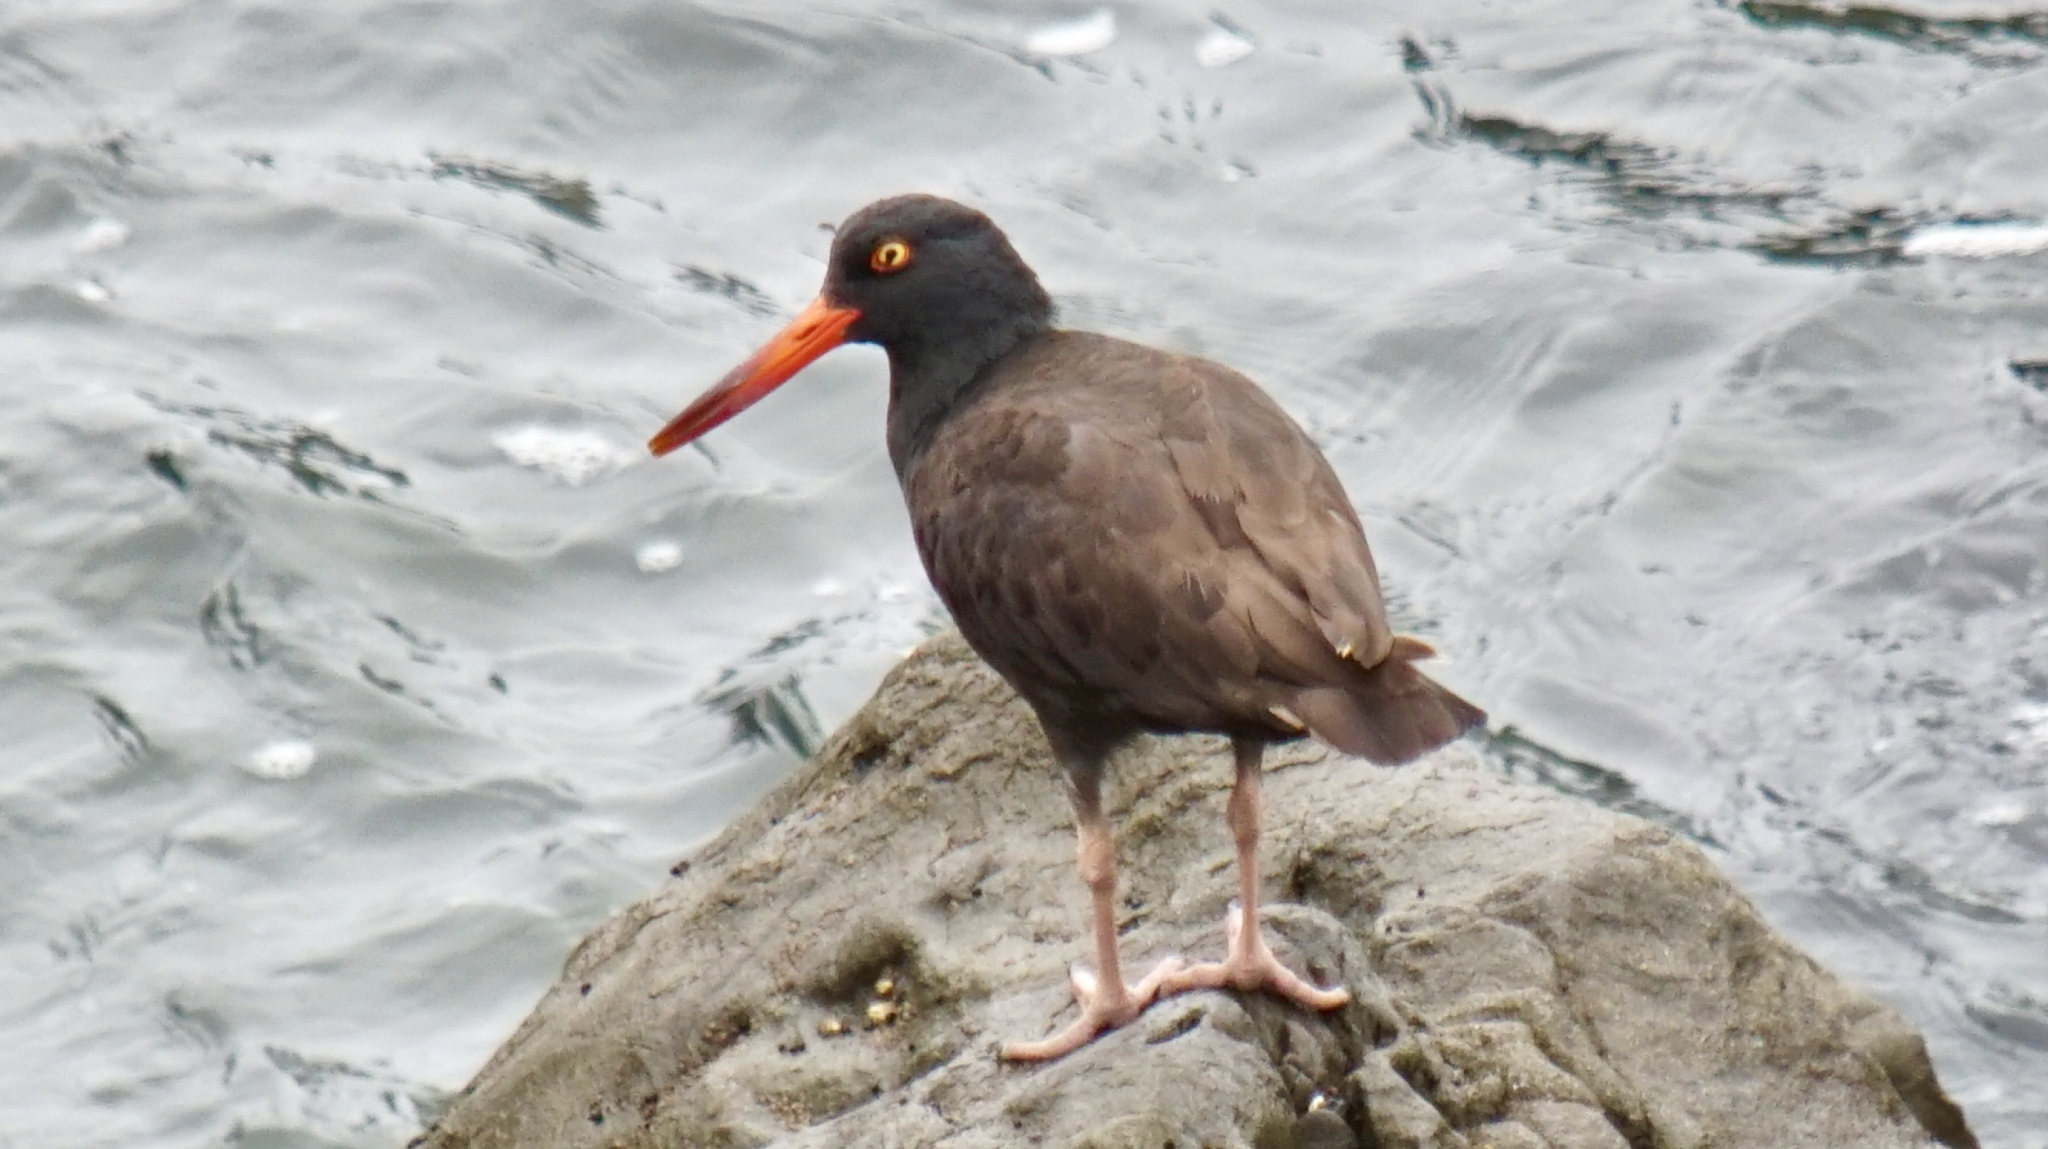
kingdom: Animalia
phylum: Chordata
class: Aves
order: Charadriiformes
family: Haematopodidae
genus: Haematopus
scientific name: Haematopus bachmani
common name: Black oystercatcher
